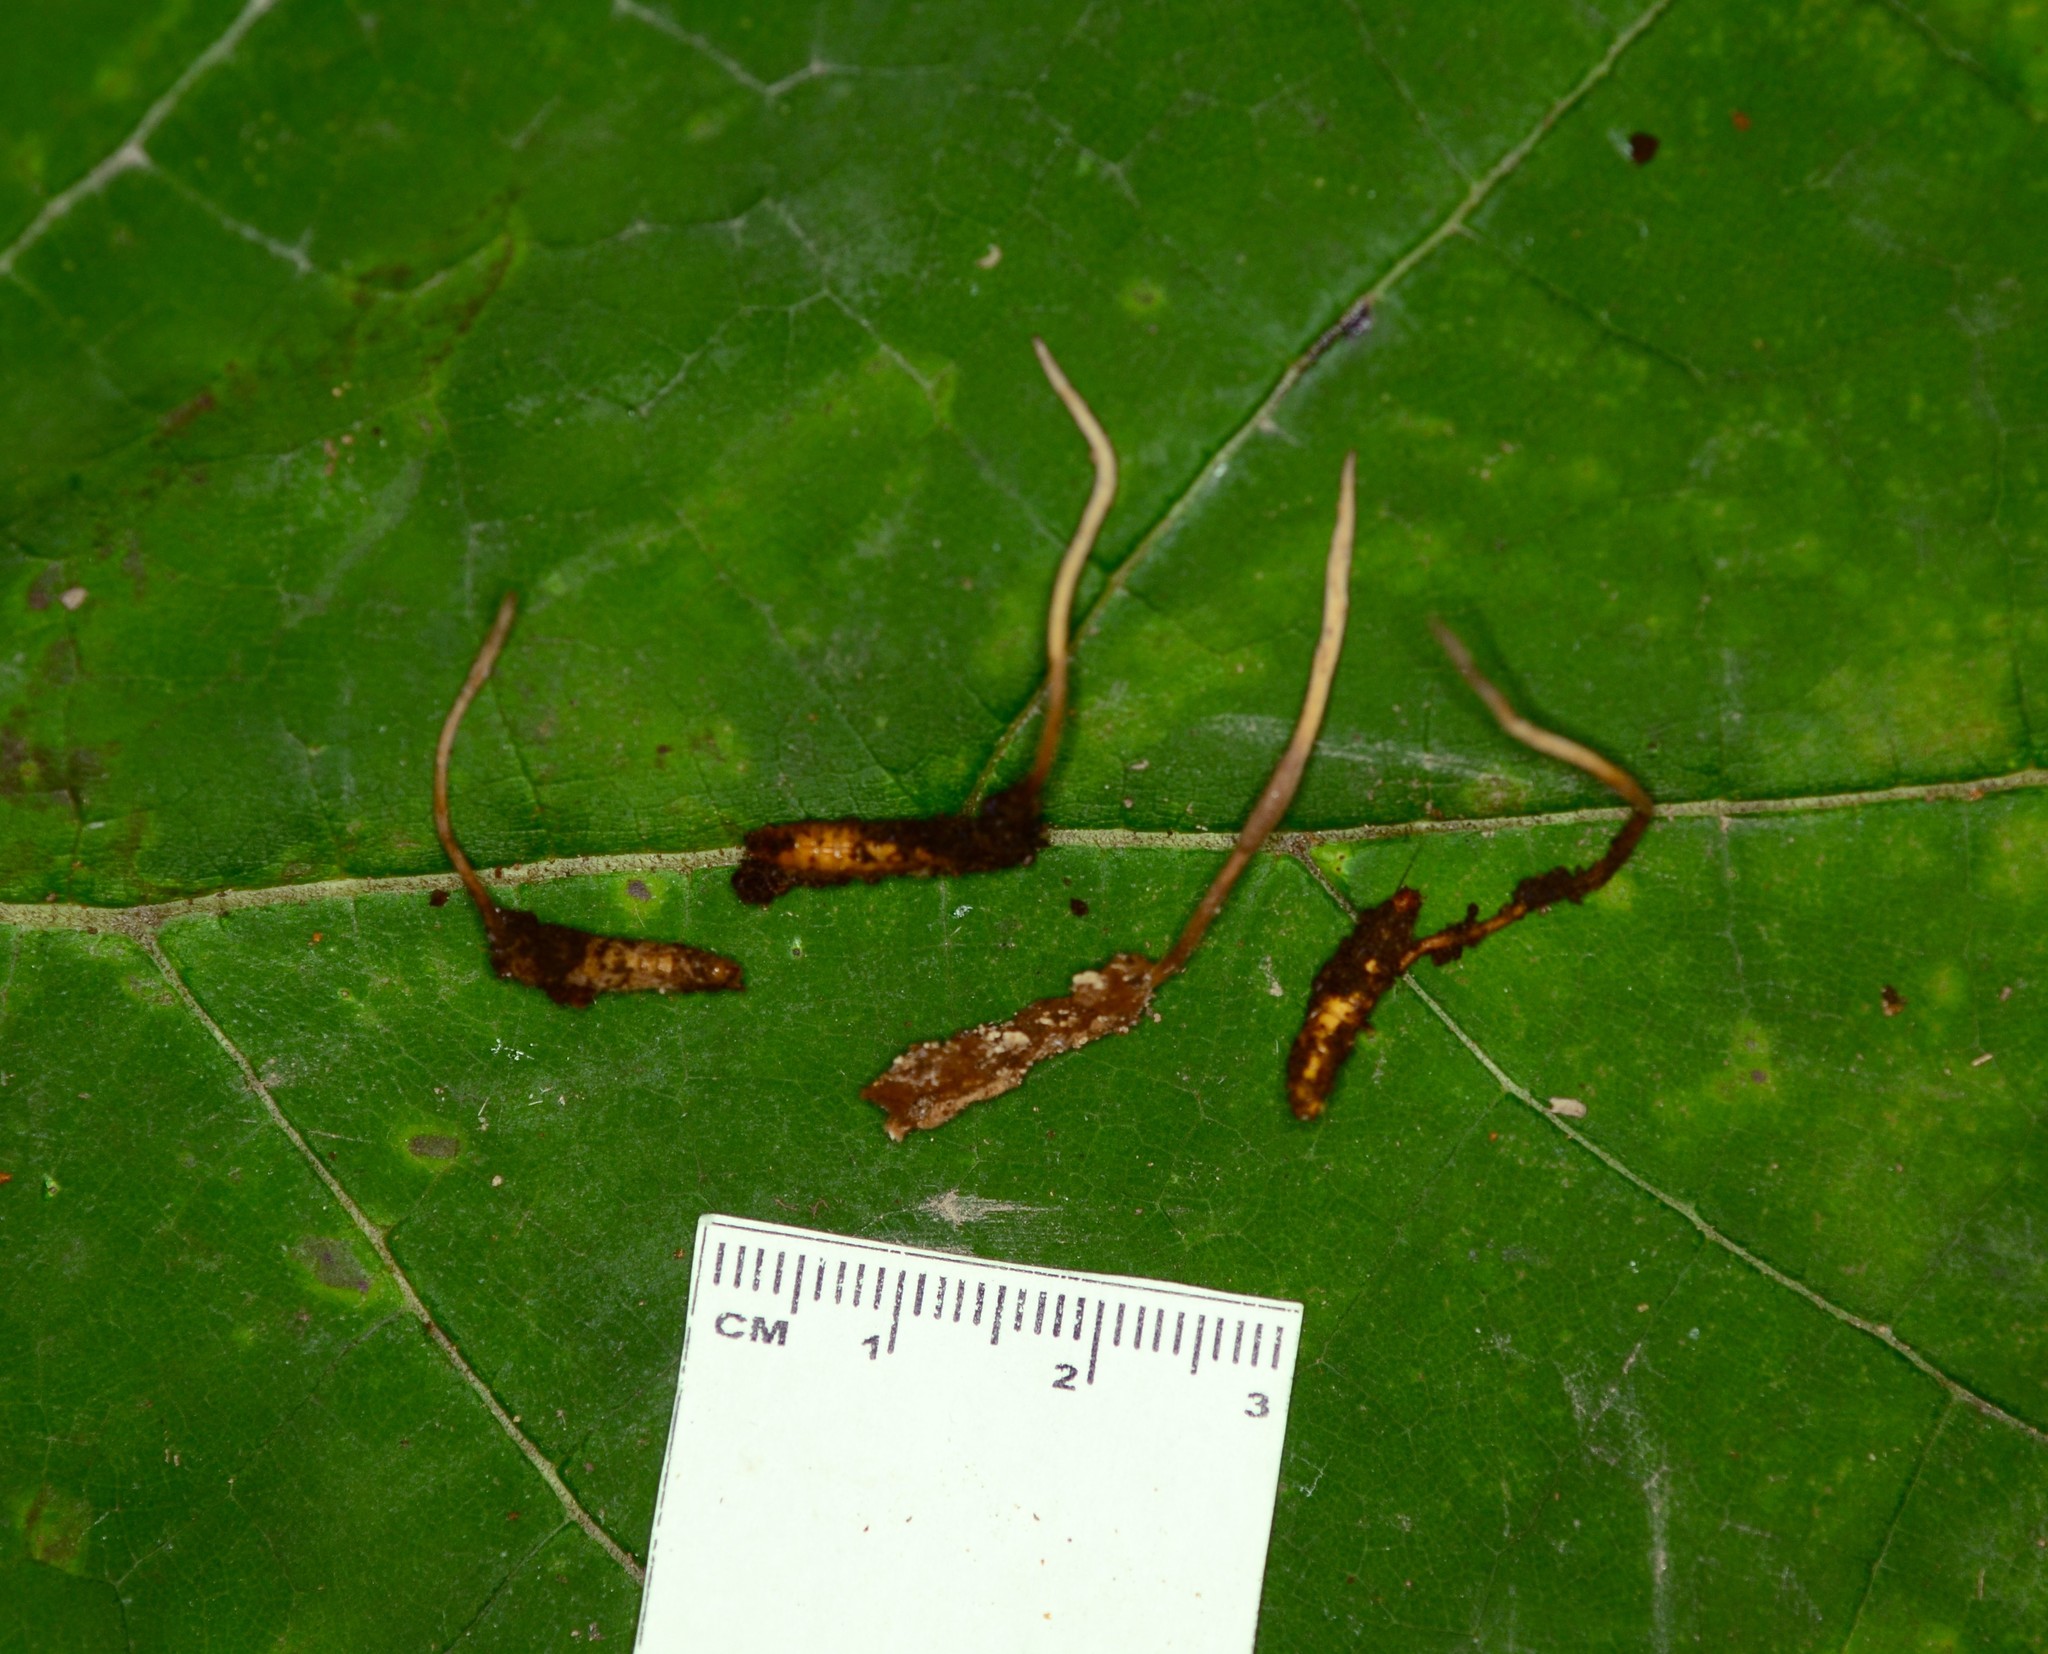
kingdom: Fungi
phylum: Ascomycota
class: Sordariomycetes
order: Hypocreales
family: Ophiocordycipitaceae
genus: Ophiocordyceps
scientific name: Ophiocordyceps stylophora
